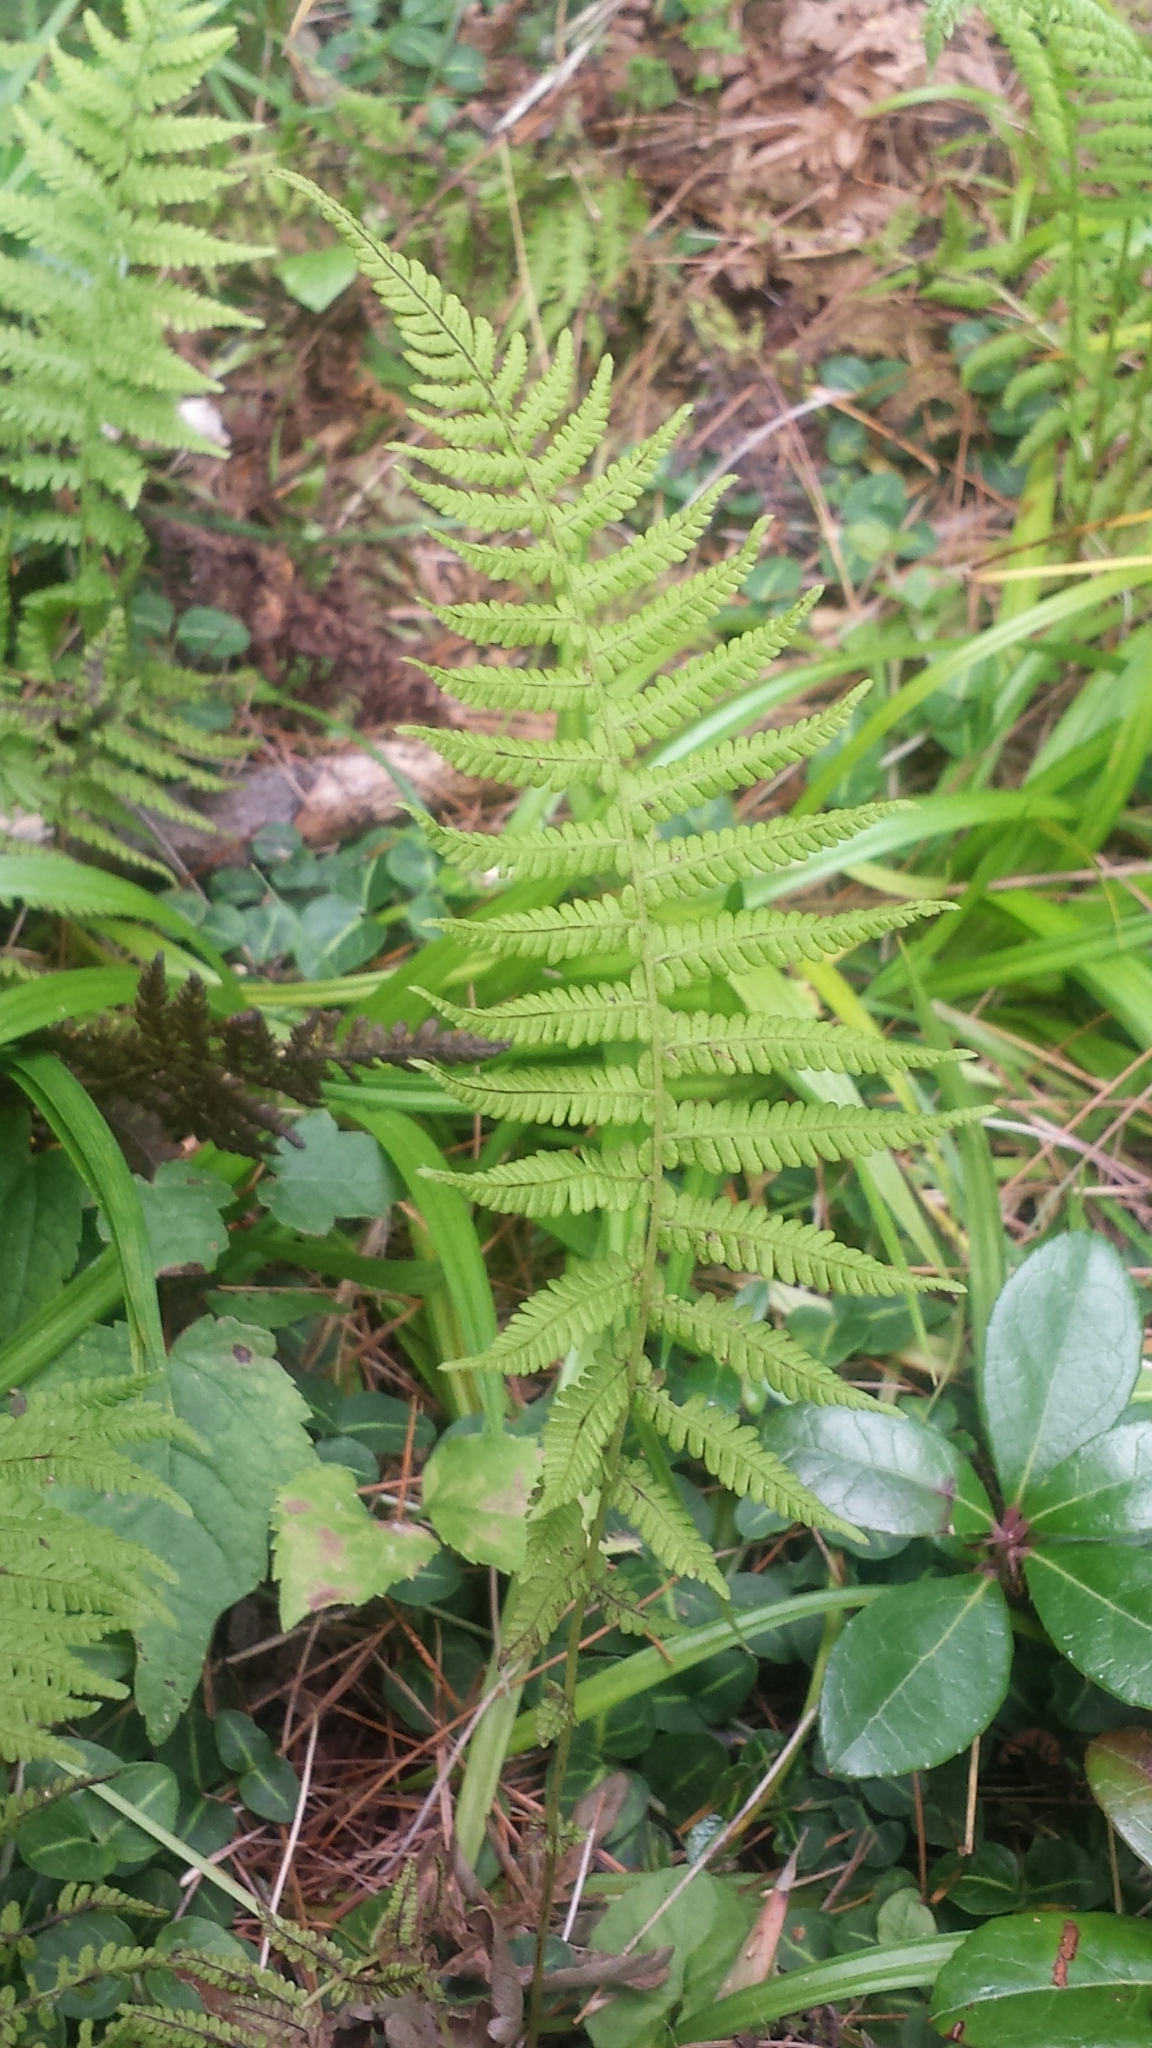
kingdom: Plantae
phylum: Tracheophyta
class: Polypodiopsida
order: Polypodiales
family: Thelypteridaceae
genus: Amauropelta
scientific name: Amauropelta noveboracensis
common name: New york fern
